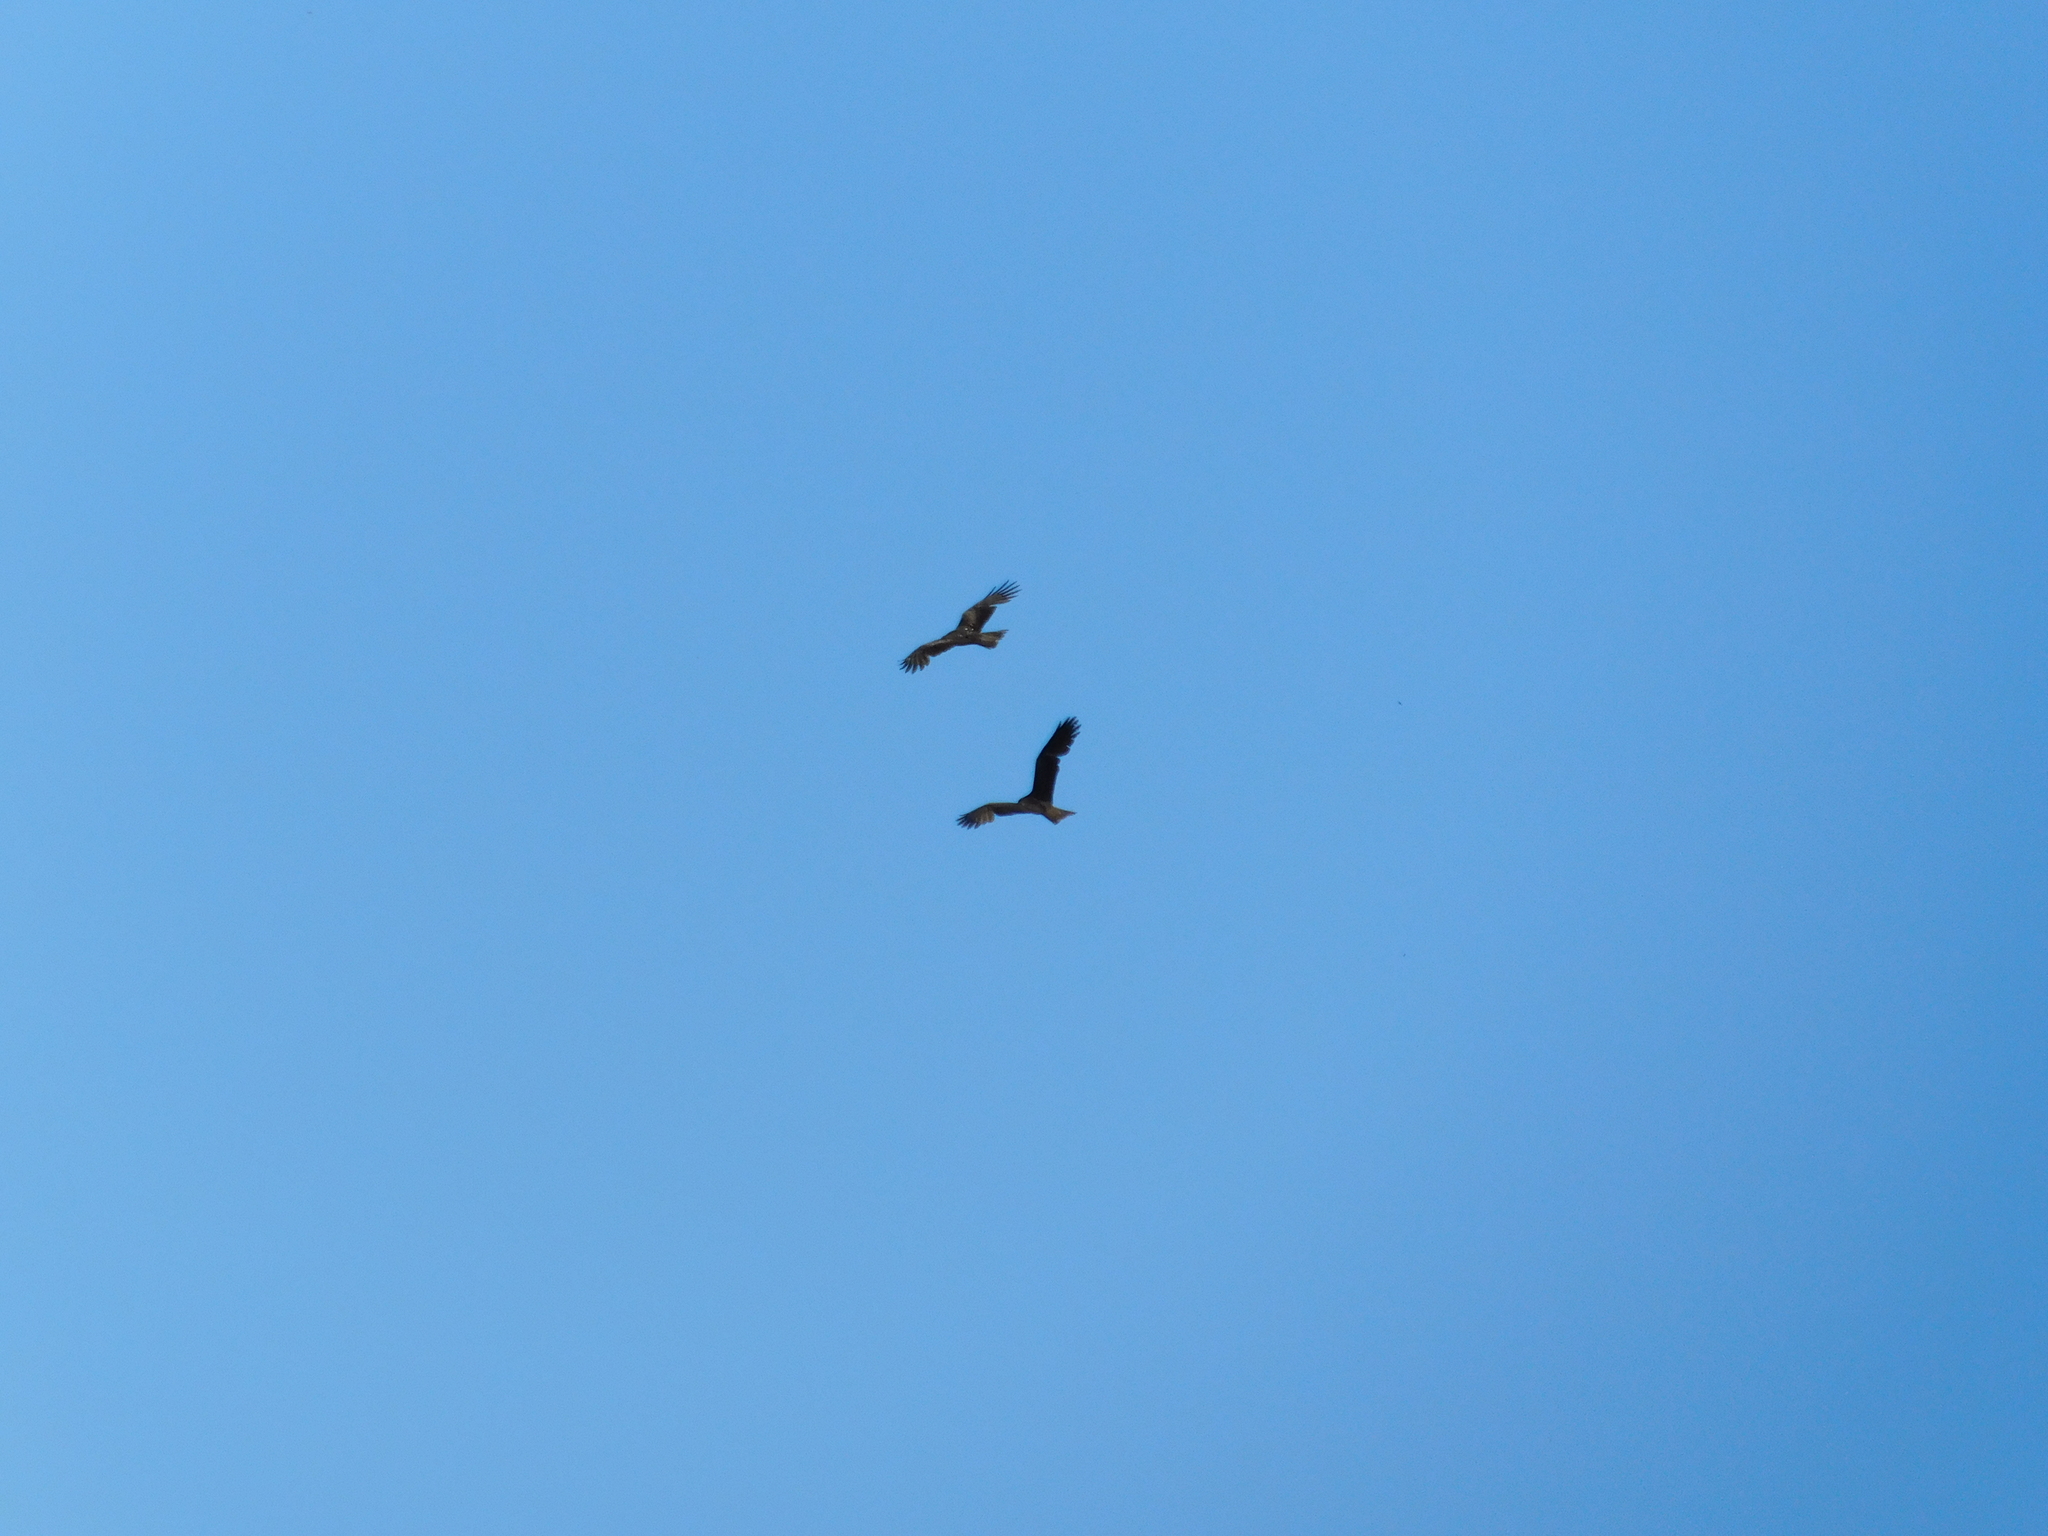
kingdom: Animalia
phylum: Chordata
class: Aves
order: Accipitriformes
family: Accipitridae
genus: Milvus
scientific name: Milvus migrans
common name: Black kite
